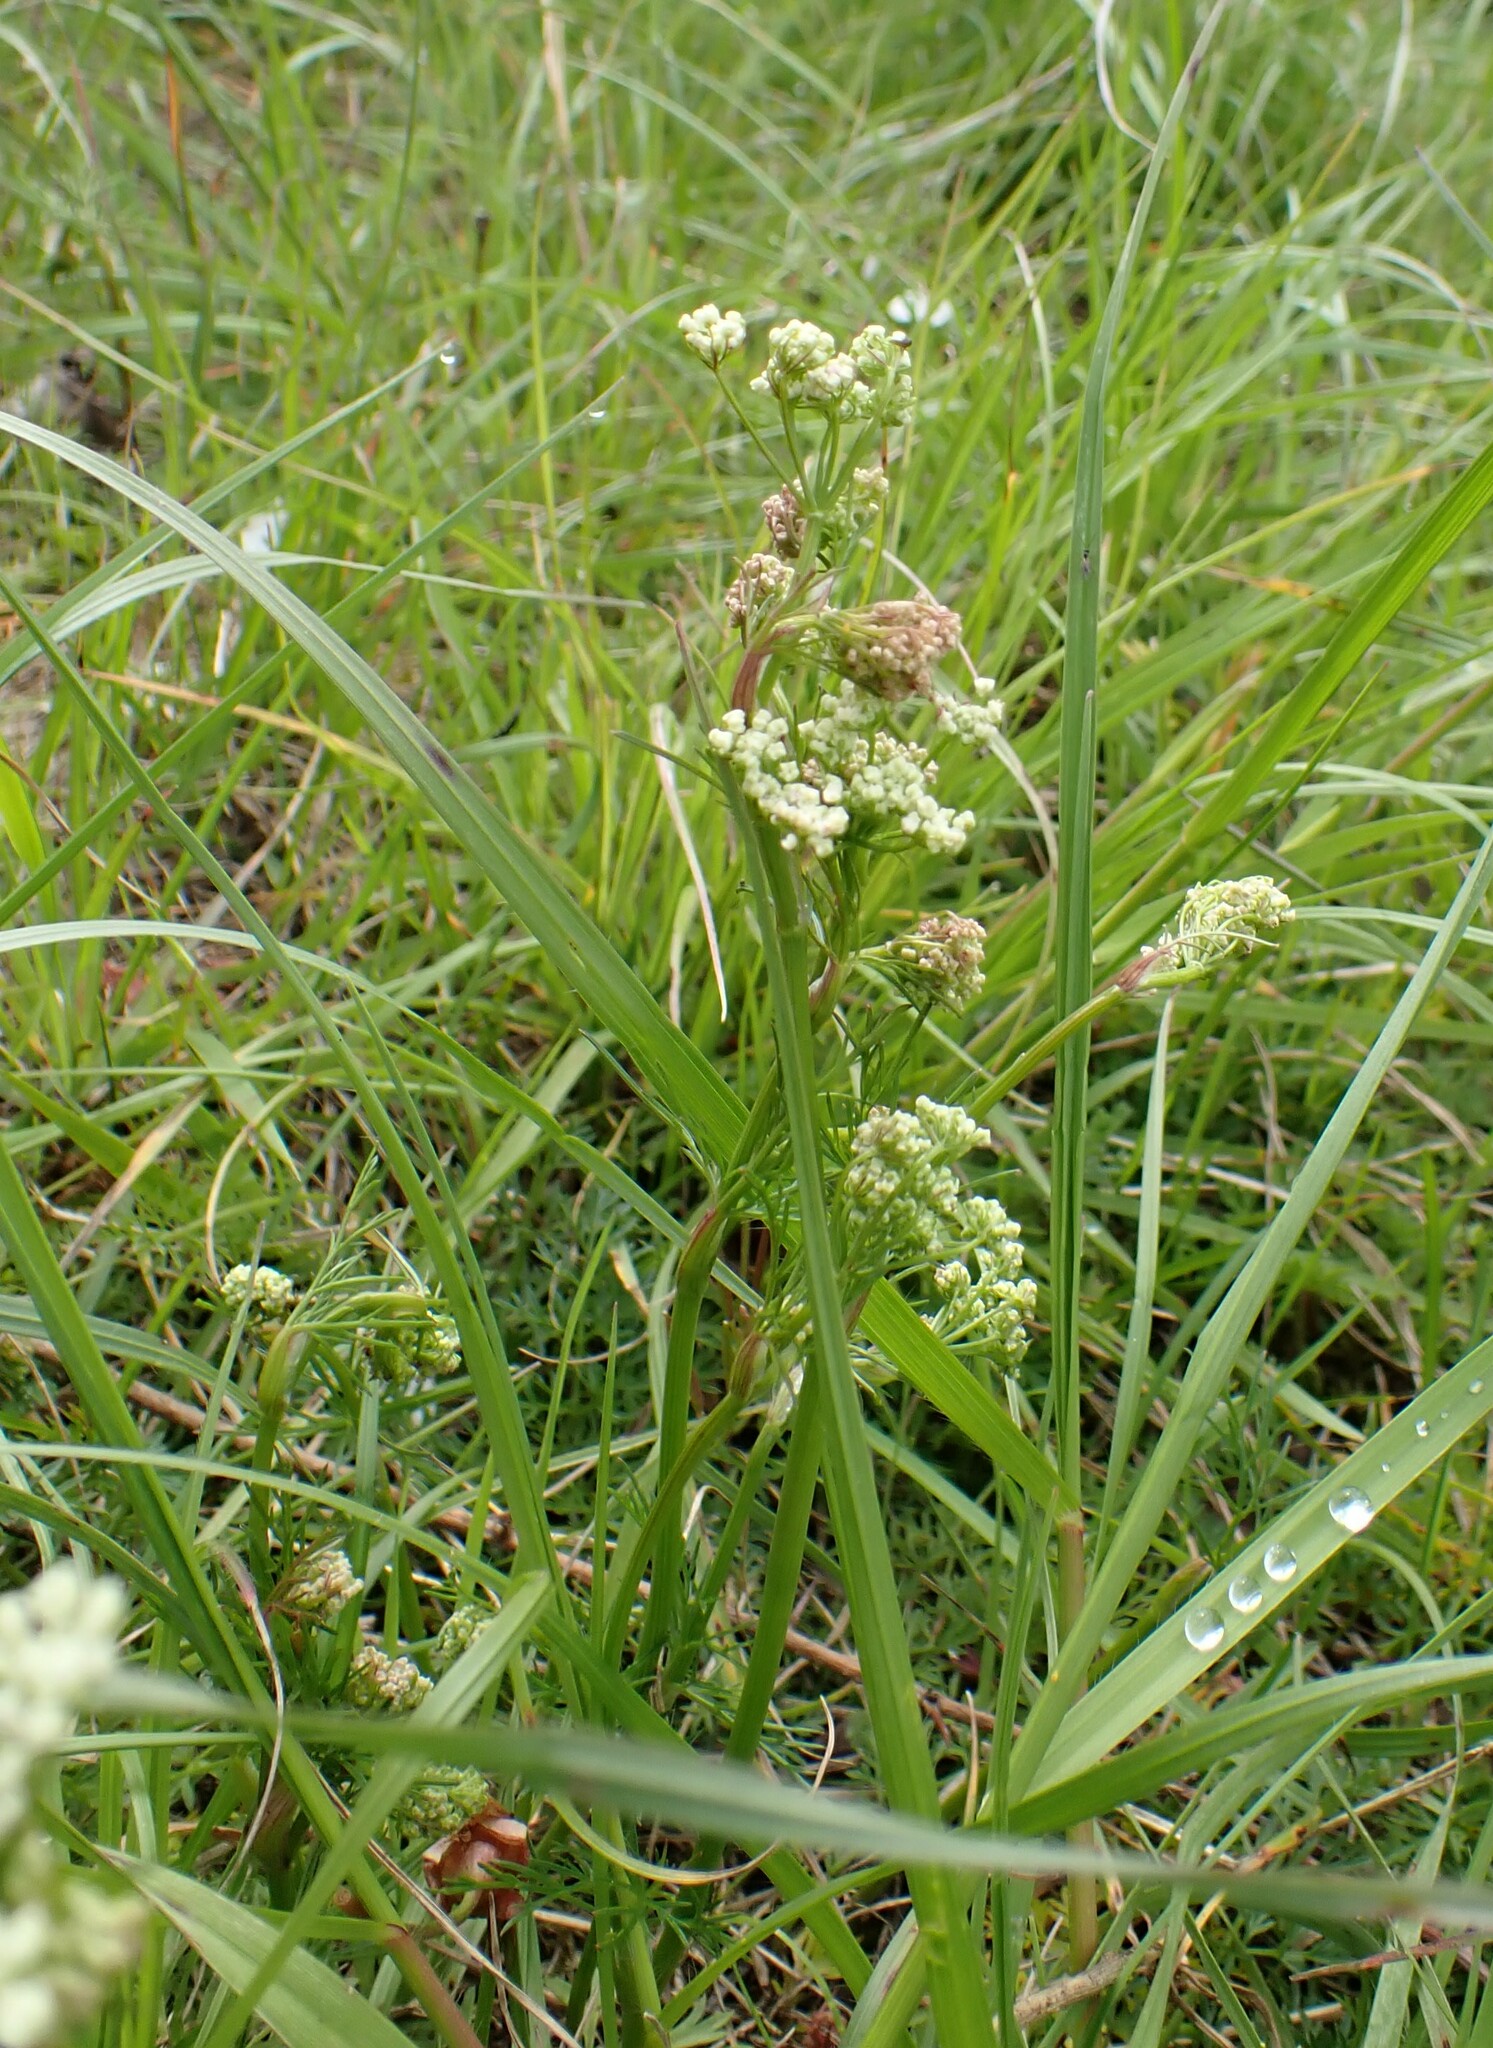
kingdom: Plantae
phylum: Tracheophyta
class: Magnoliopsida
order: Apiales
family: Apiaceae
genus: Conopodium
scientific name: Conopodium majus
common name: Pignut
